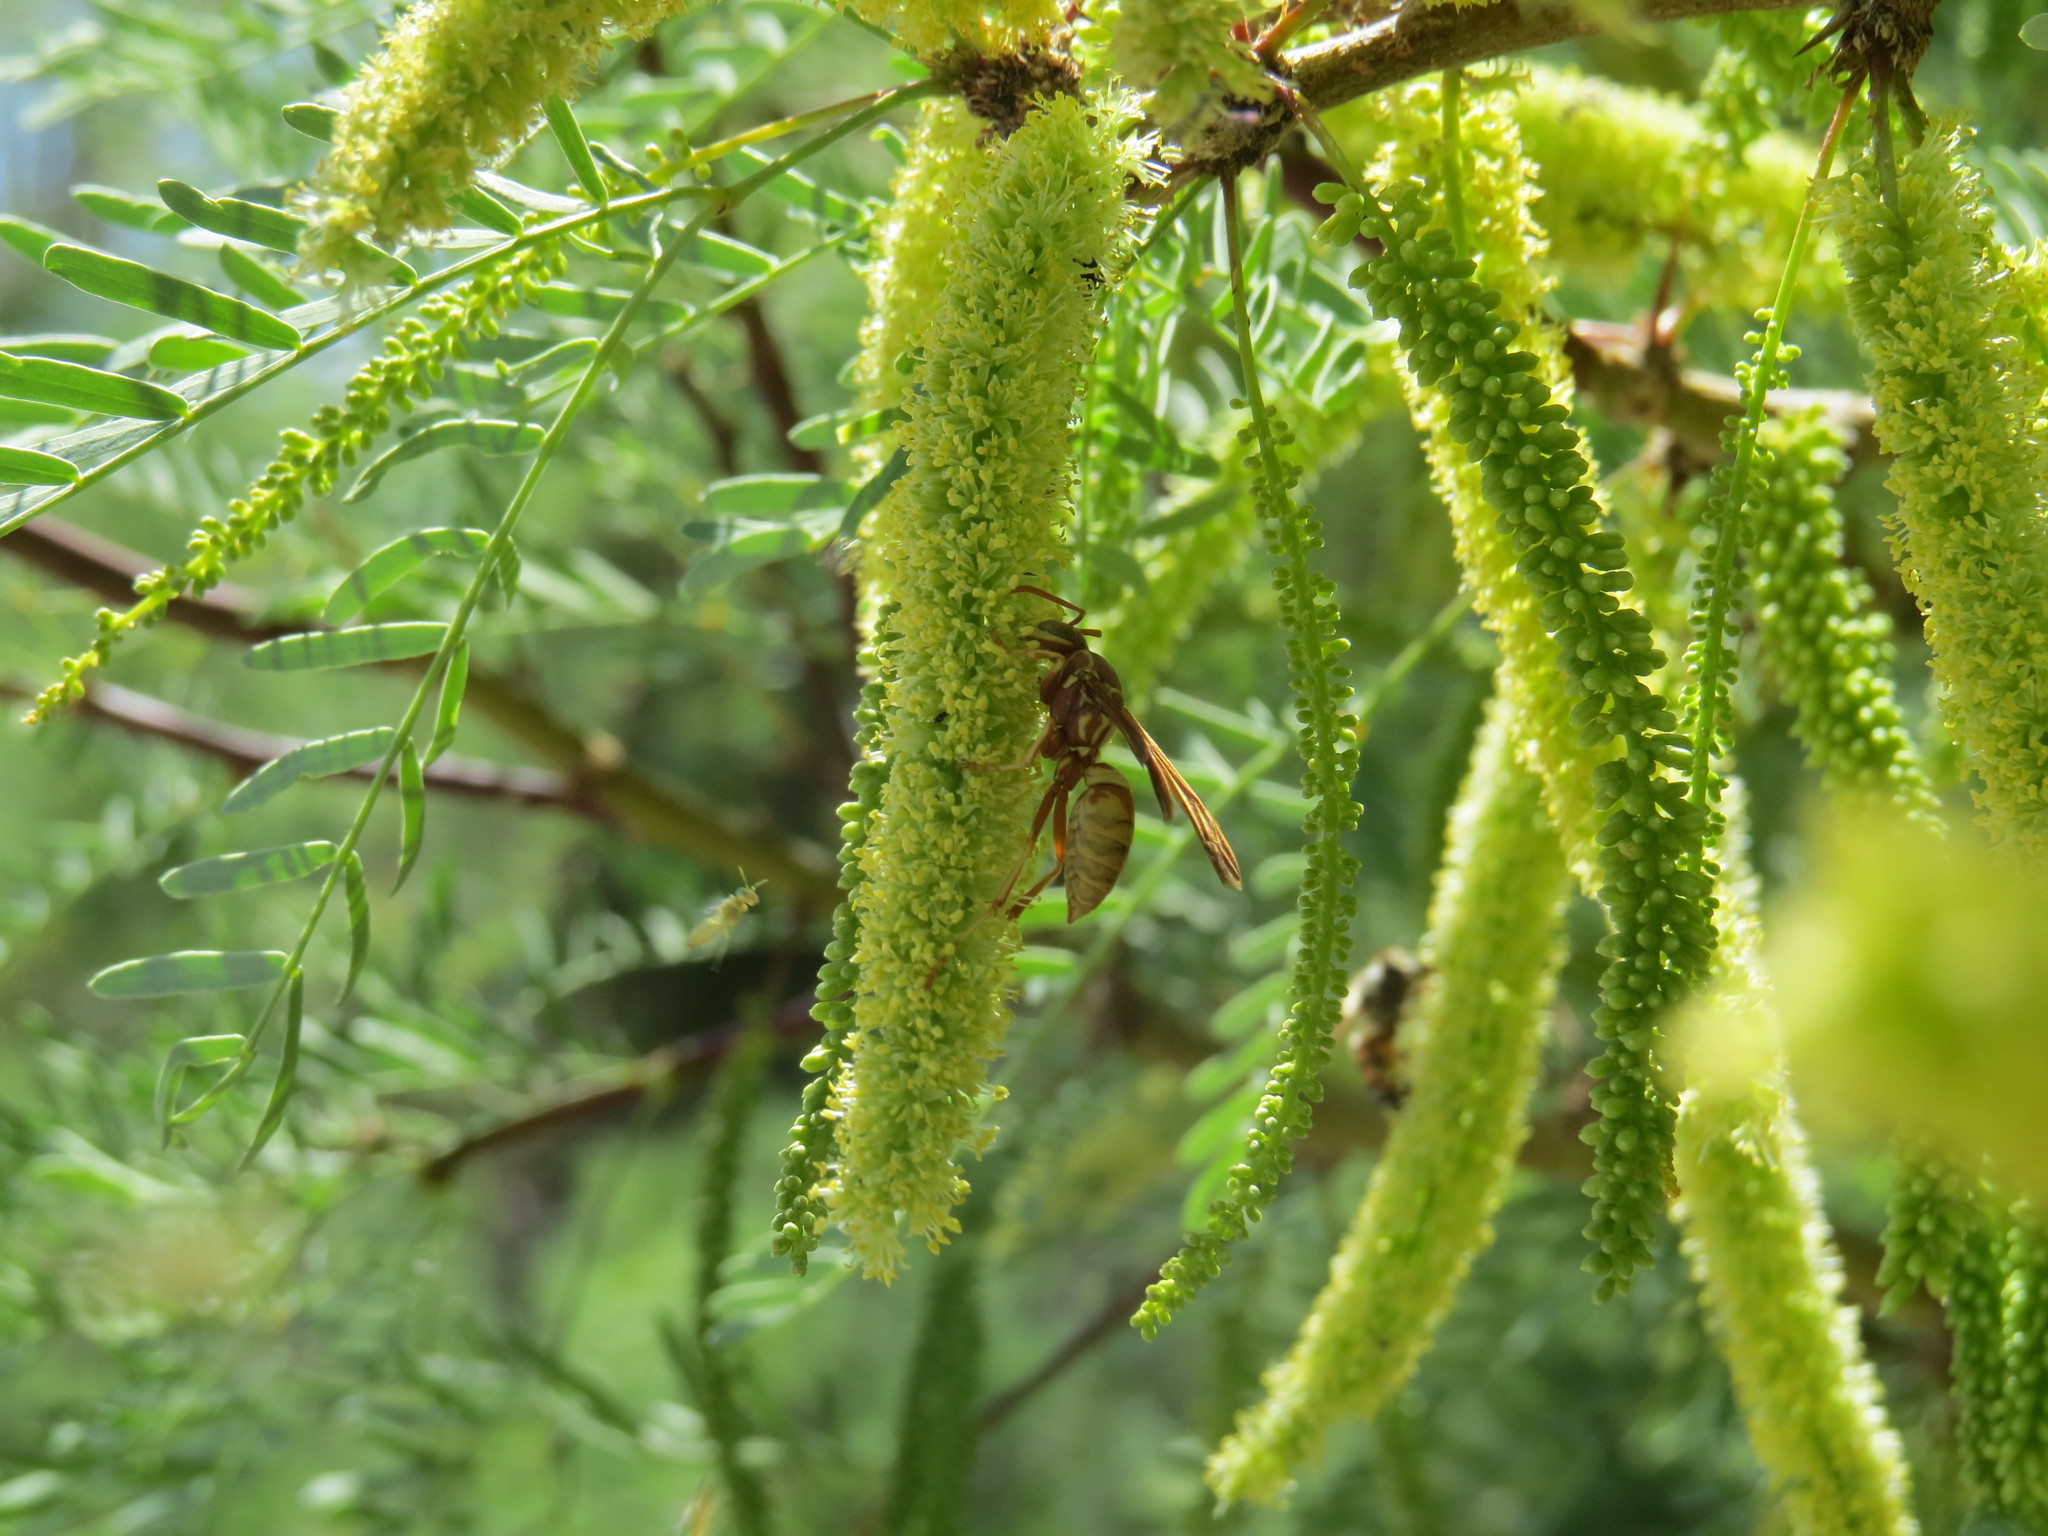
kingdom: Plantae
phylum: Tracheophyta
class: Magnoliopsida
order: Fabales
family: Fabaceae
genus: Prosopis
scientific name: Prosopis glandulosa
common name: Honey mesquite
